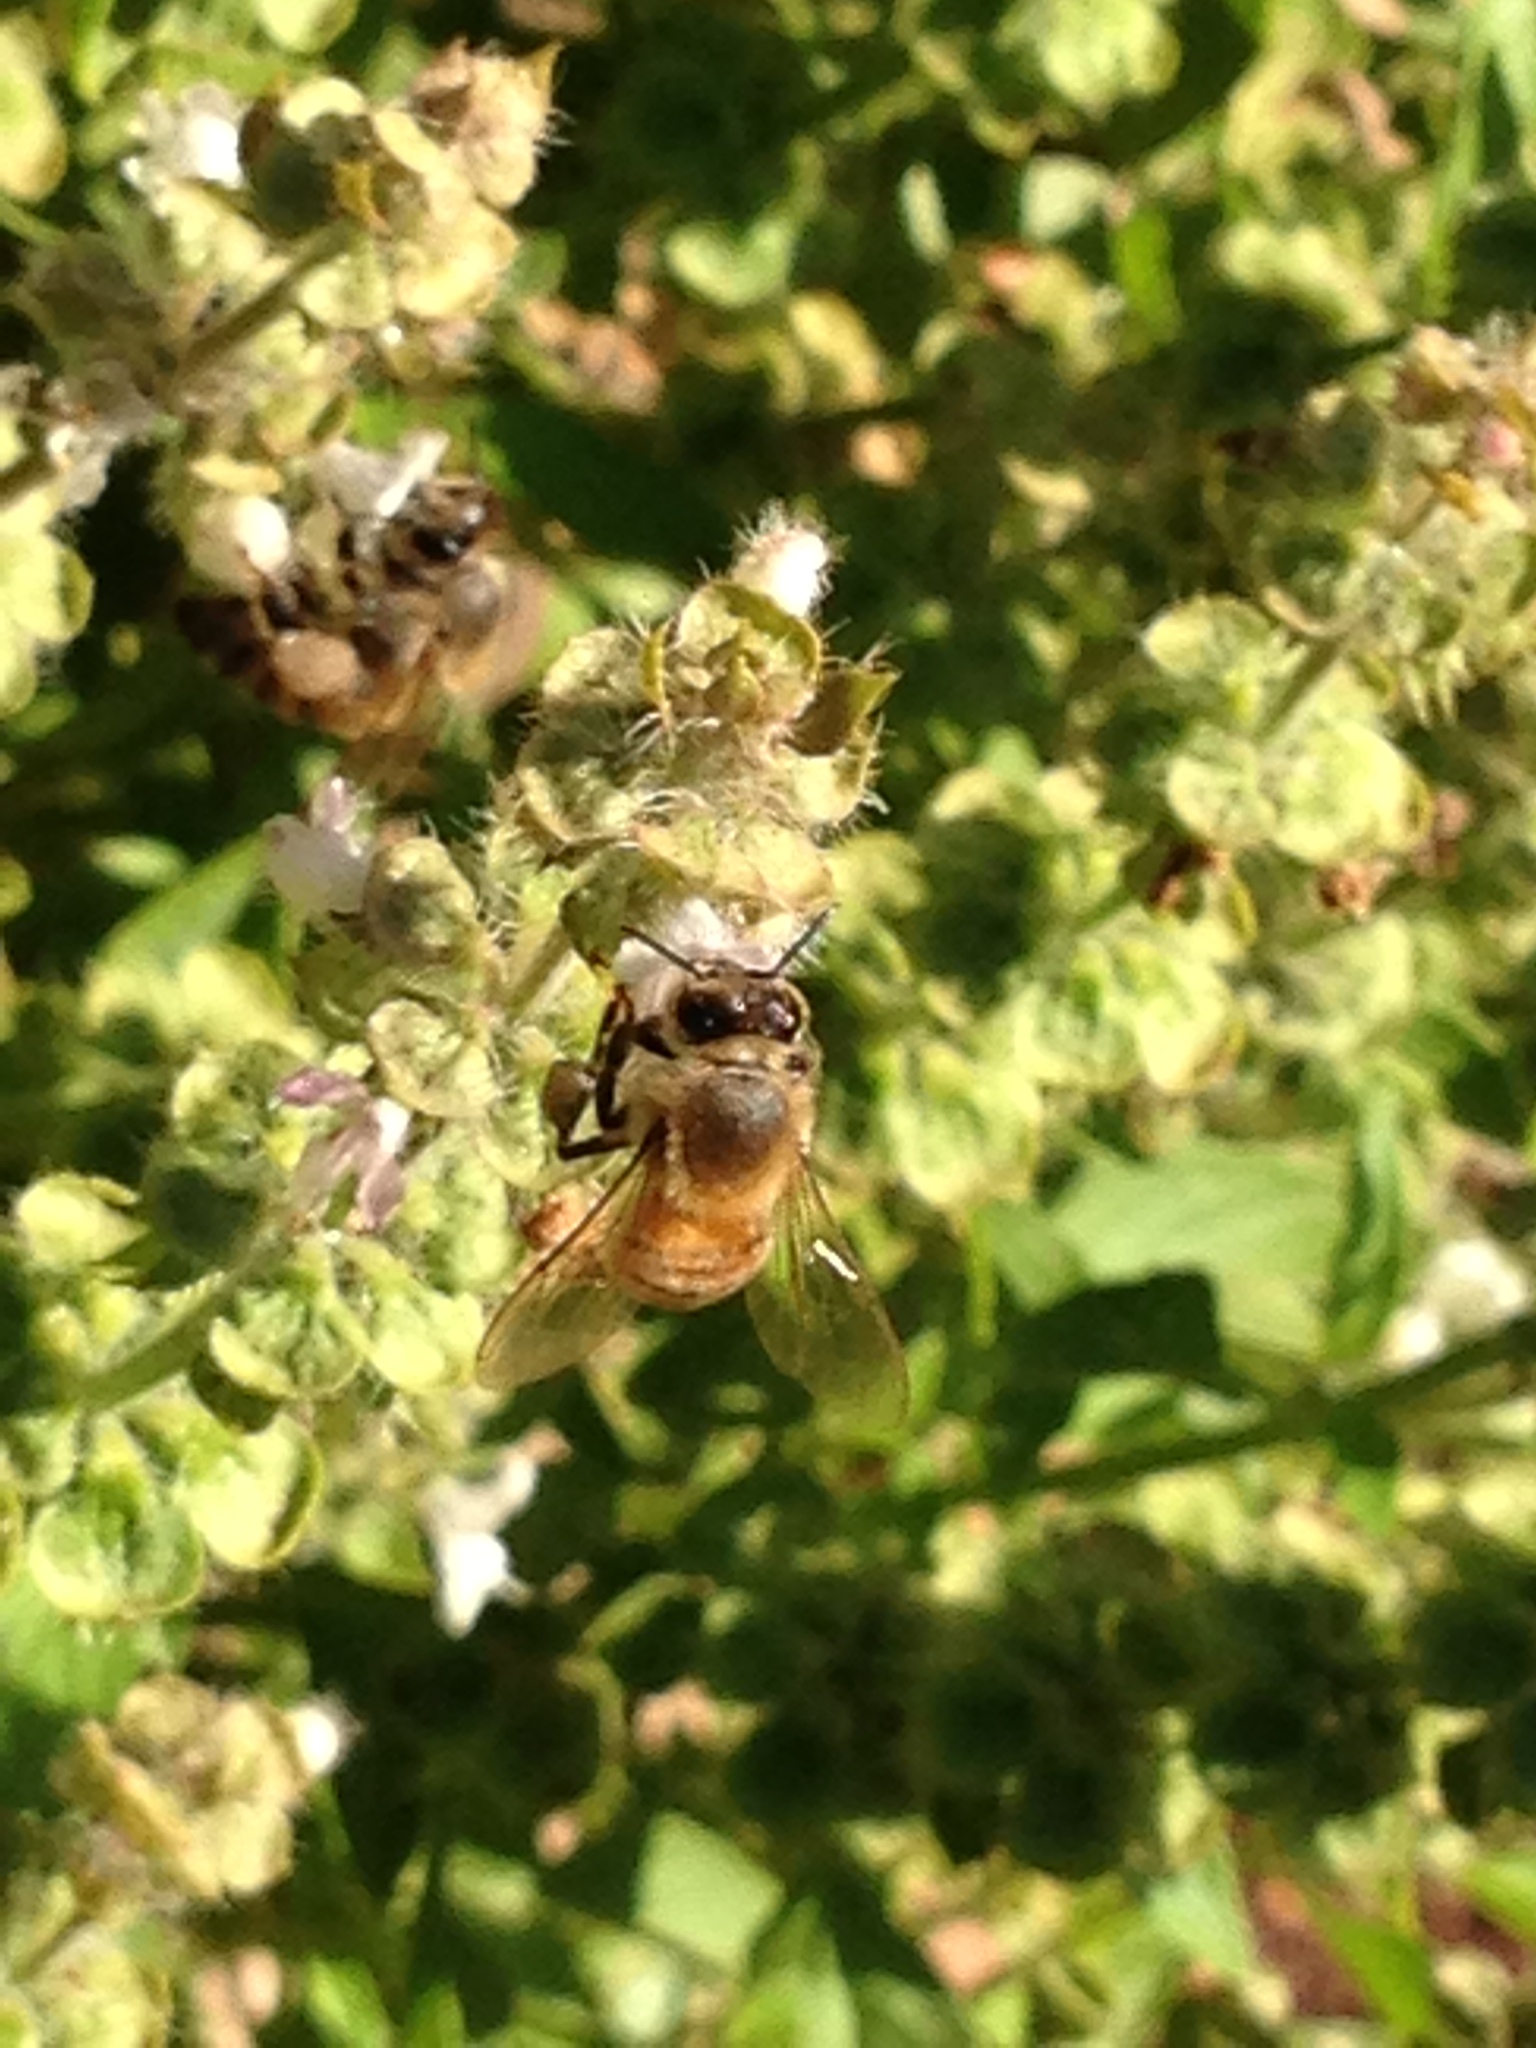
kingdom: Animalia
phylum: Arthropoda
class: Insecta
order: Hymenoptera
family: Apidae
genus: Apis
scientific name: Apis mellifera
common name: Honey bee
